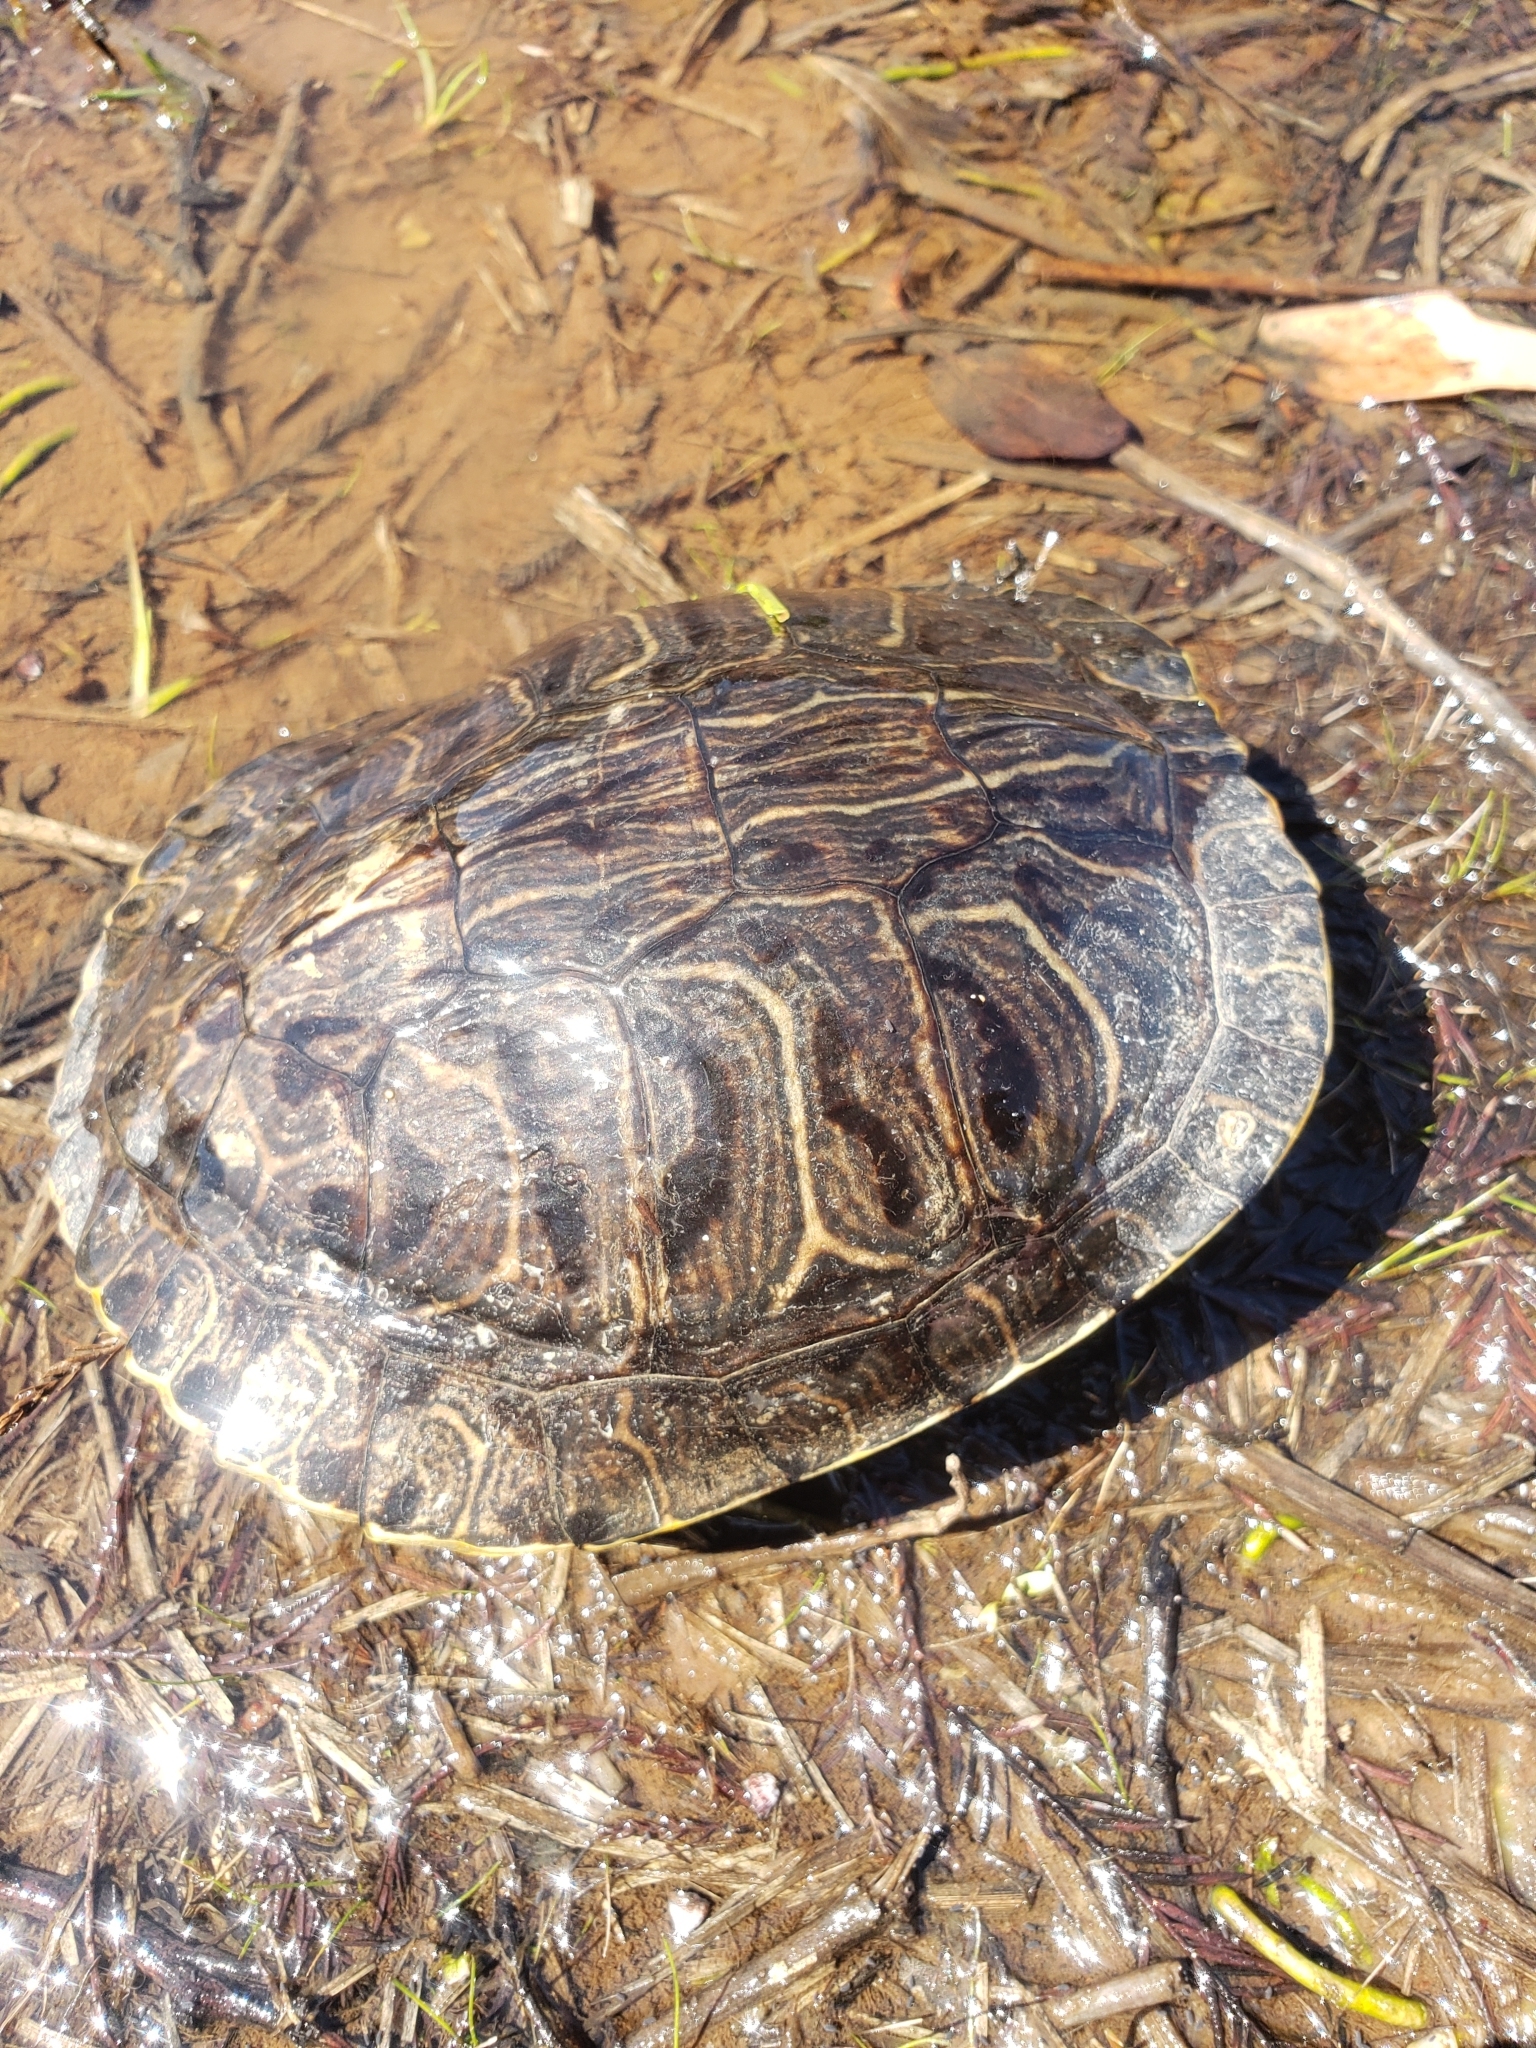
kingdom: Animalia
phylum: Chordata
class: Testudines
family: Emydidae
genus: Trachemys
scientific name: Trachemys scripta
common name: Slider
